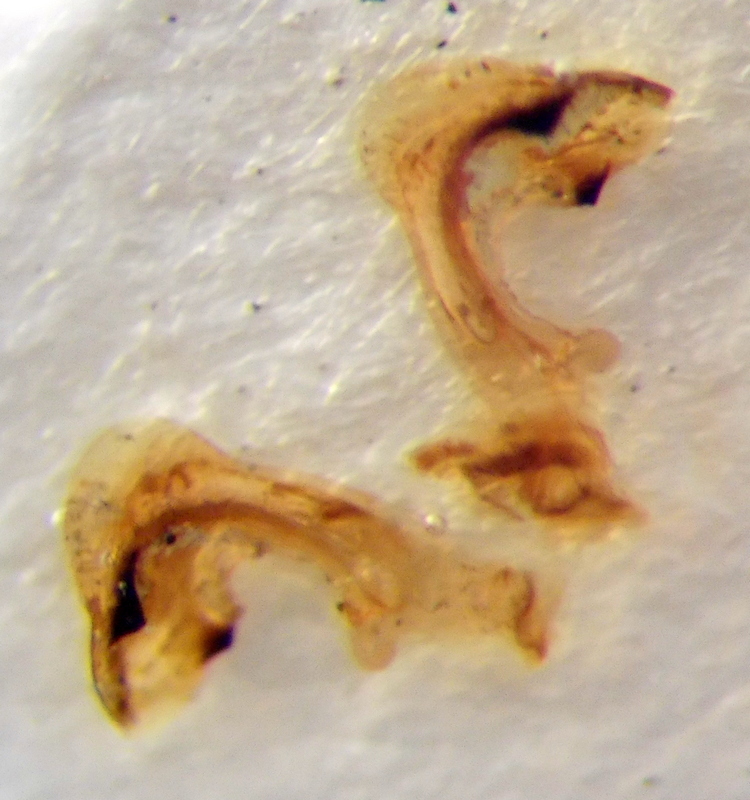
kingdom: Animalia
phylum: Arthropoda
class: Insecta
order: Hemiptera
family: Pentatomidae
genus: Carpocoris
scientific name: Carpocoris fuscispinus
